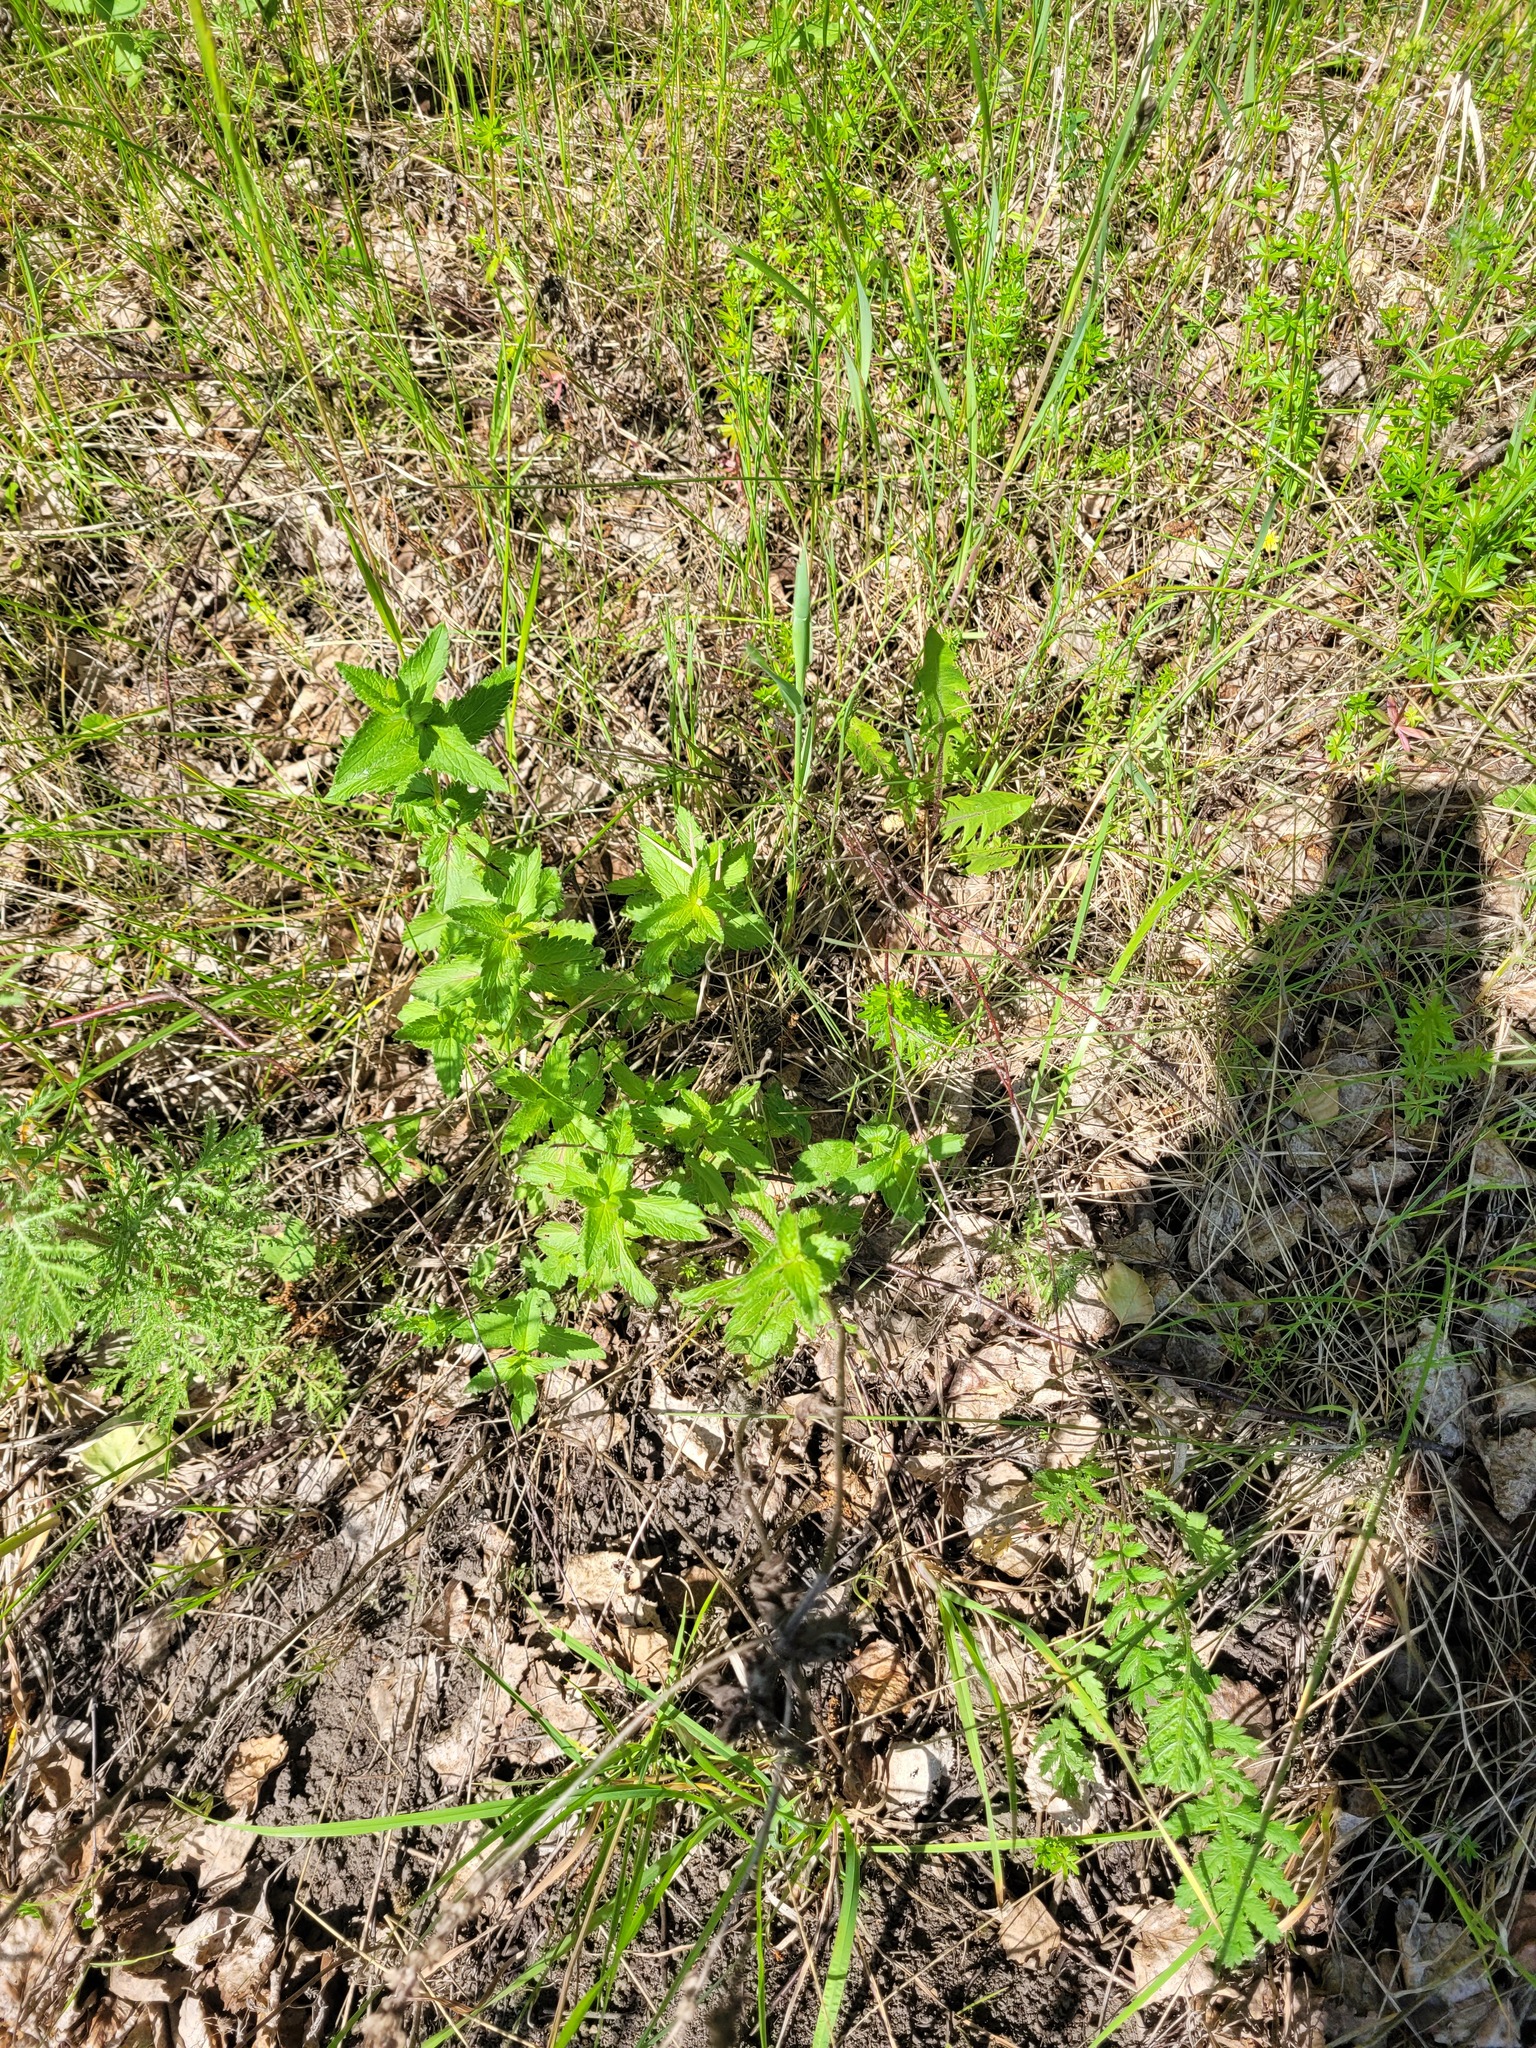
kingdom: Plantae
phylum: Tracheophyta
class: Magnoliopsida
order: Lamiales
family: Plantaginaceae
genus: Veronica
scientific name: Veronica teucrium
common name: Large speedwell
